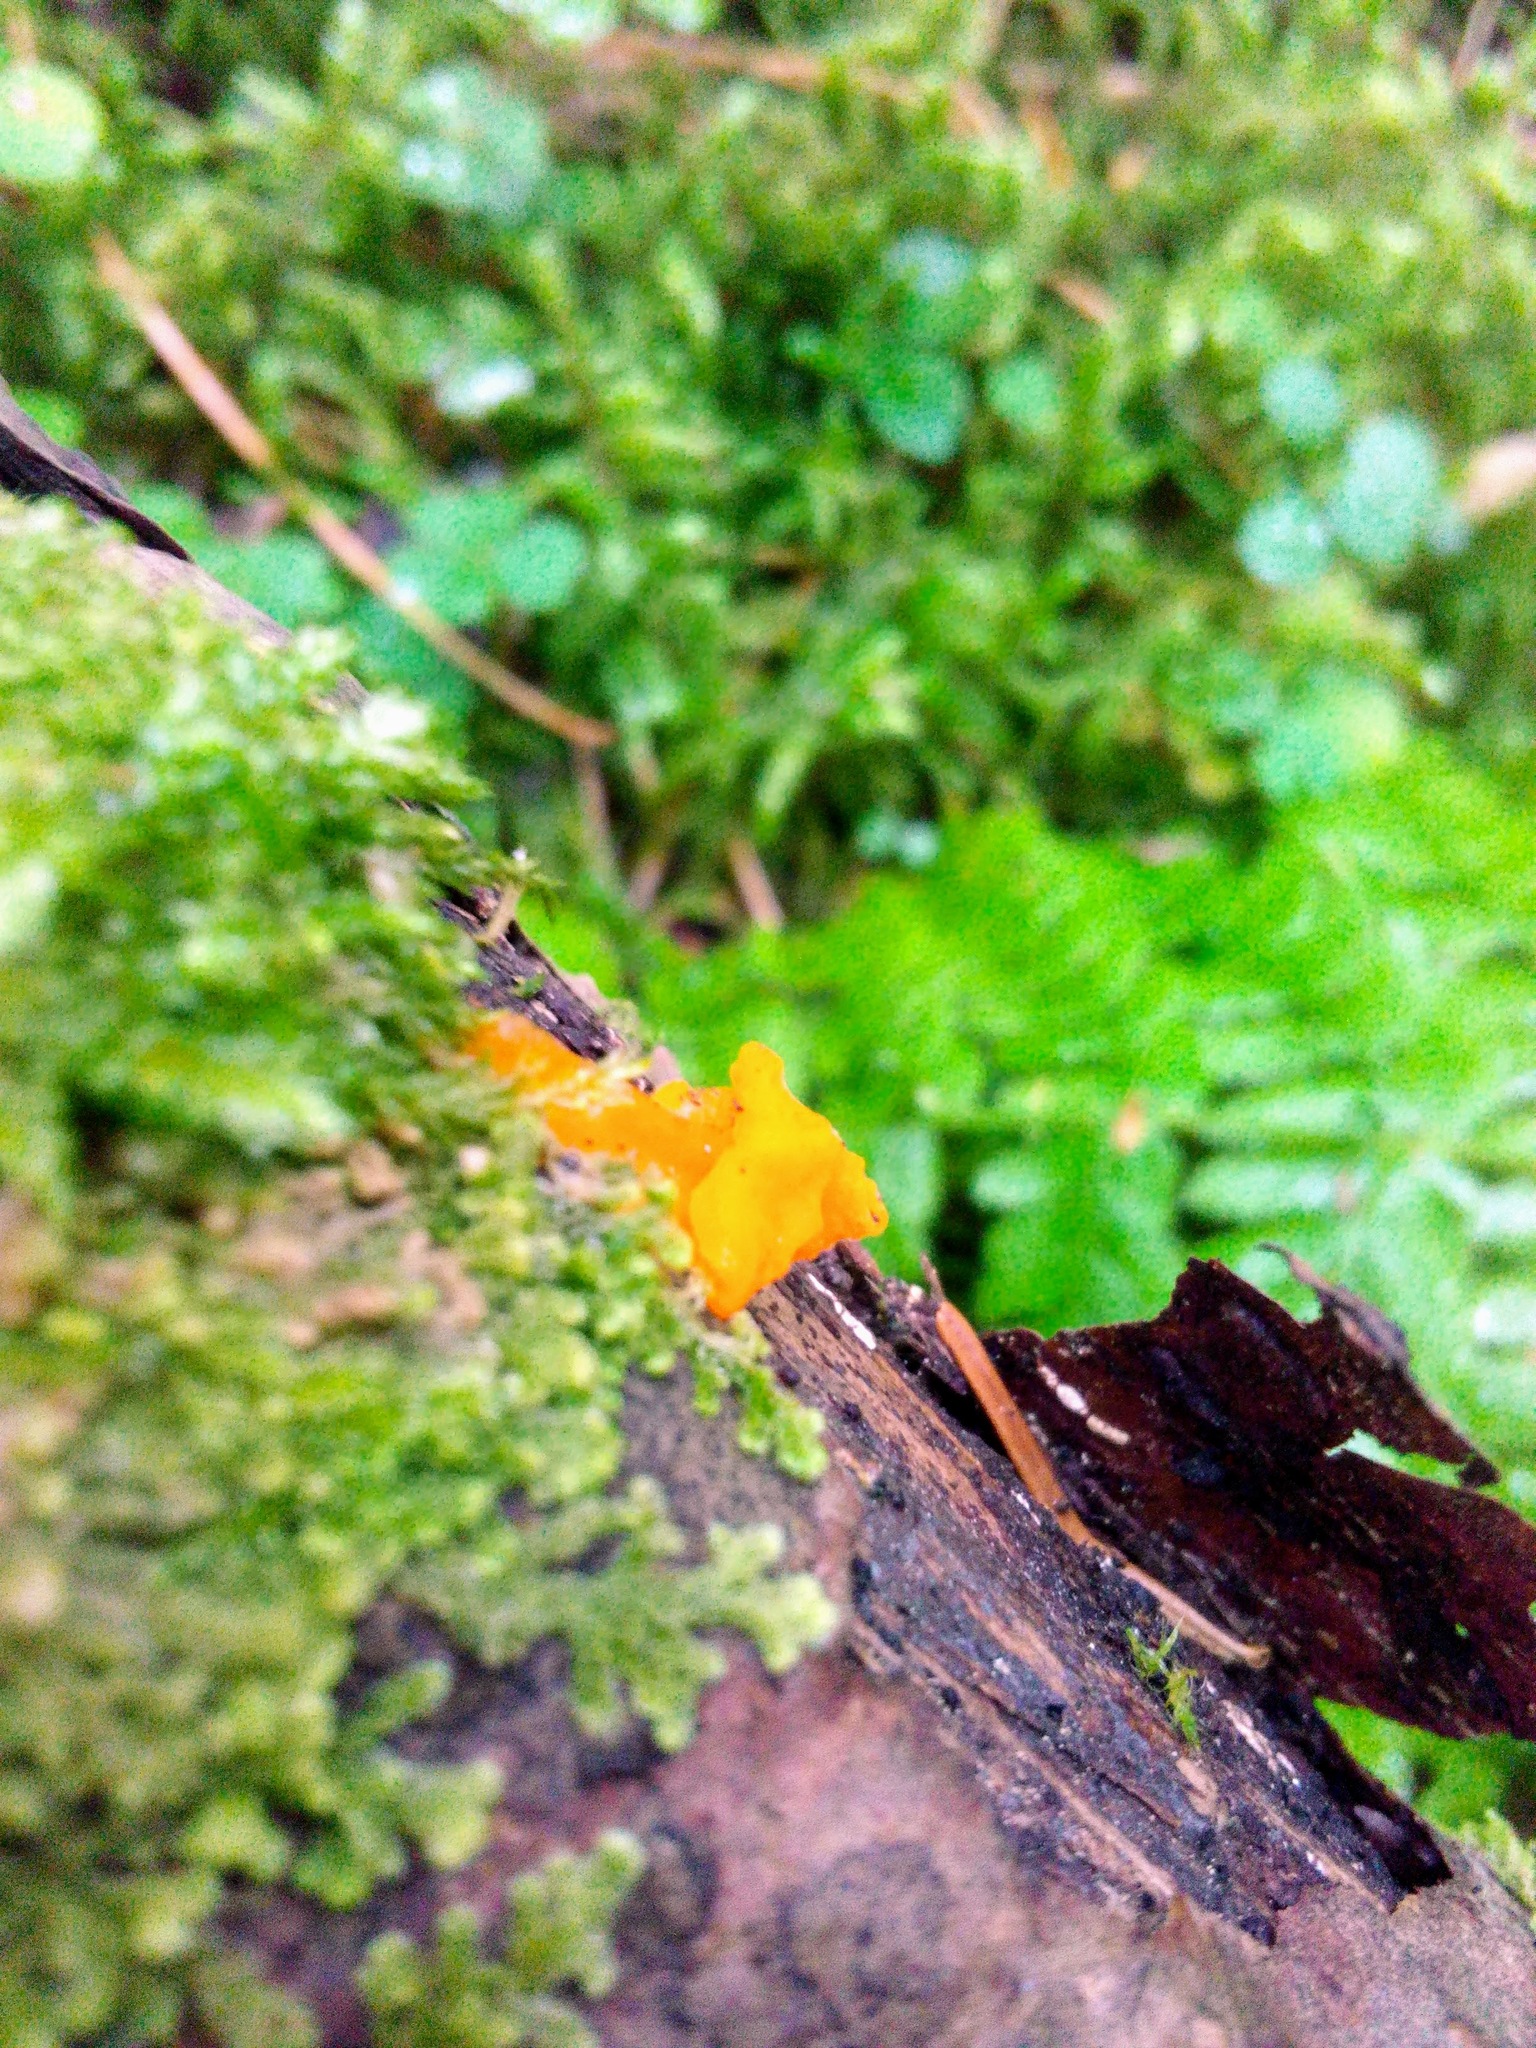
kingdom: Fungi
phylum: Basidiomycota
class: Dacrymycetes
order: Dacrymycetales
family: Dacrymycetaceae
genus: Dacrymyces
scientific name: Dacrymyces chrysospermus
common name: Orange jelly spot
